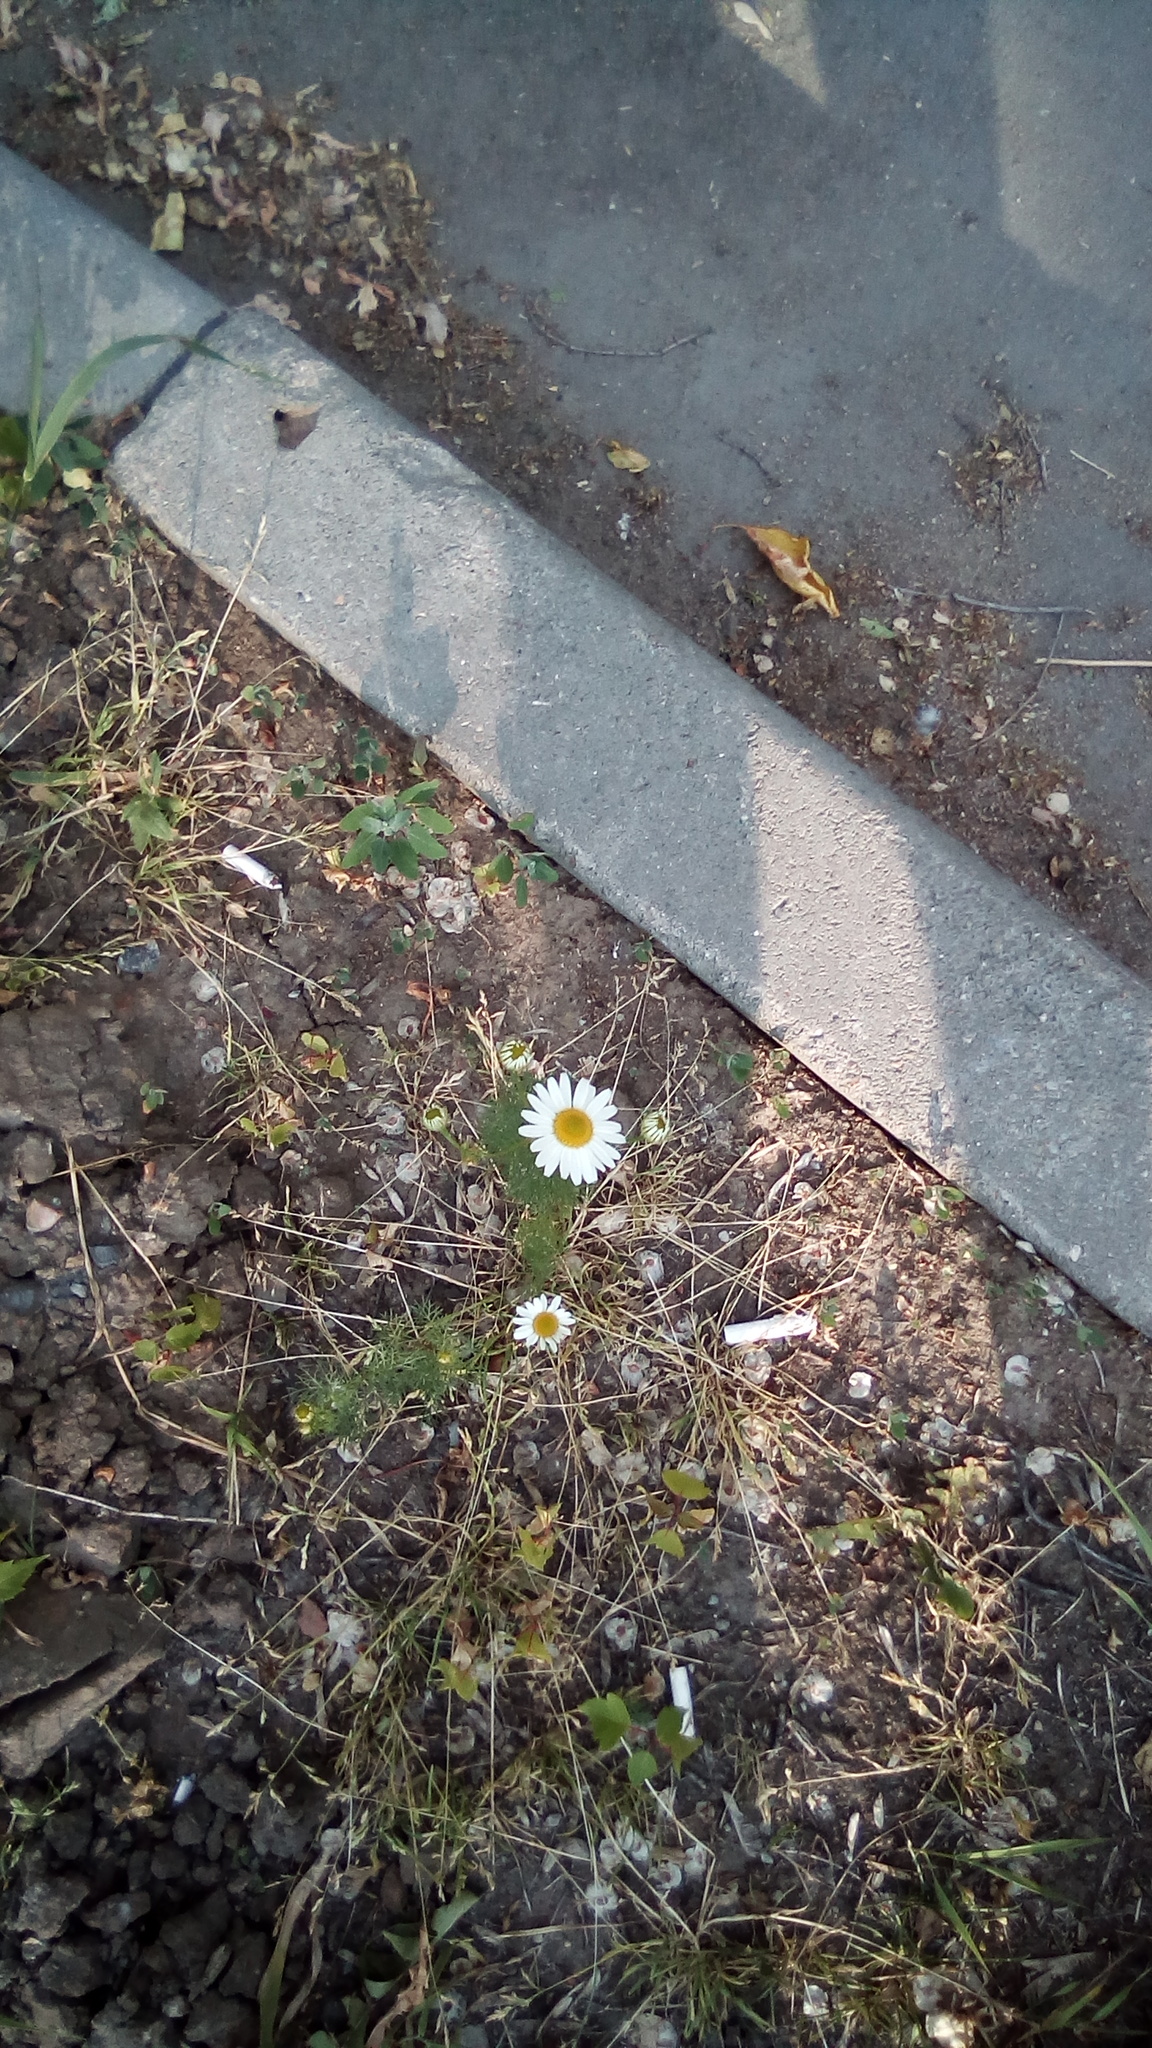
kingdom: Plantae
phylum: Tracheophyta
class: Magnoliopsida
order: Asterales
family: Asteraceae
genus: Tripleurospermum
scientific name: Tripleurospermum inodorum
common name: Scentless mayweed
